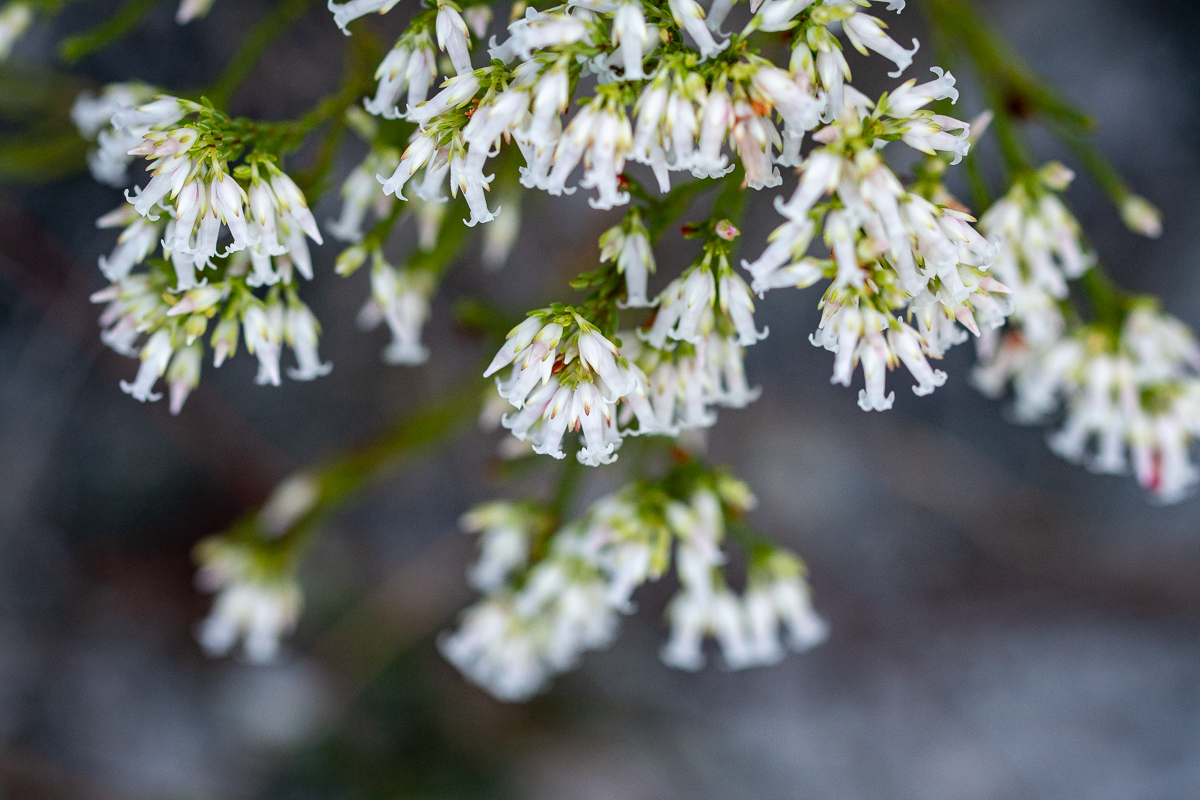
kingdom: Plantae
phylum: Tracheophyta
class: Magnoliopsida
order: Ericales
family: Ericaceae
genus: Erica
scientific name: Erica lutea
